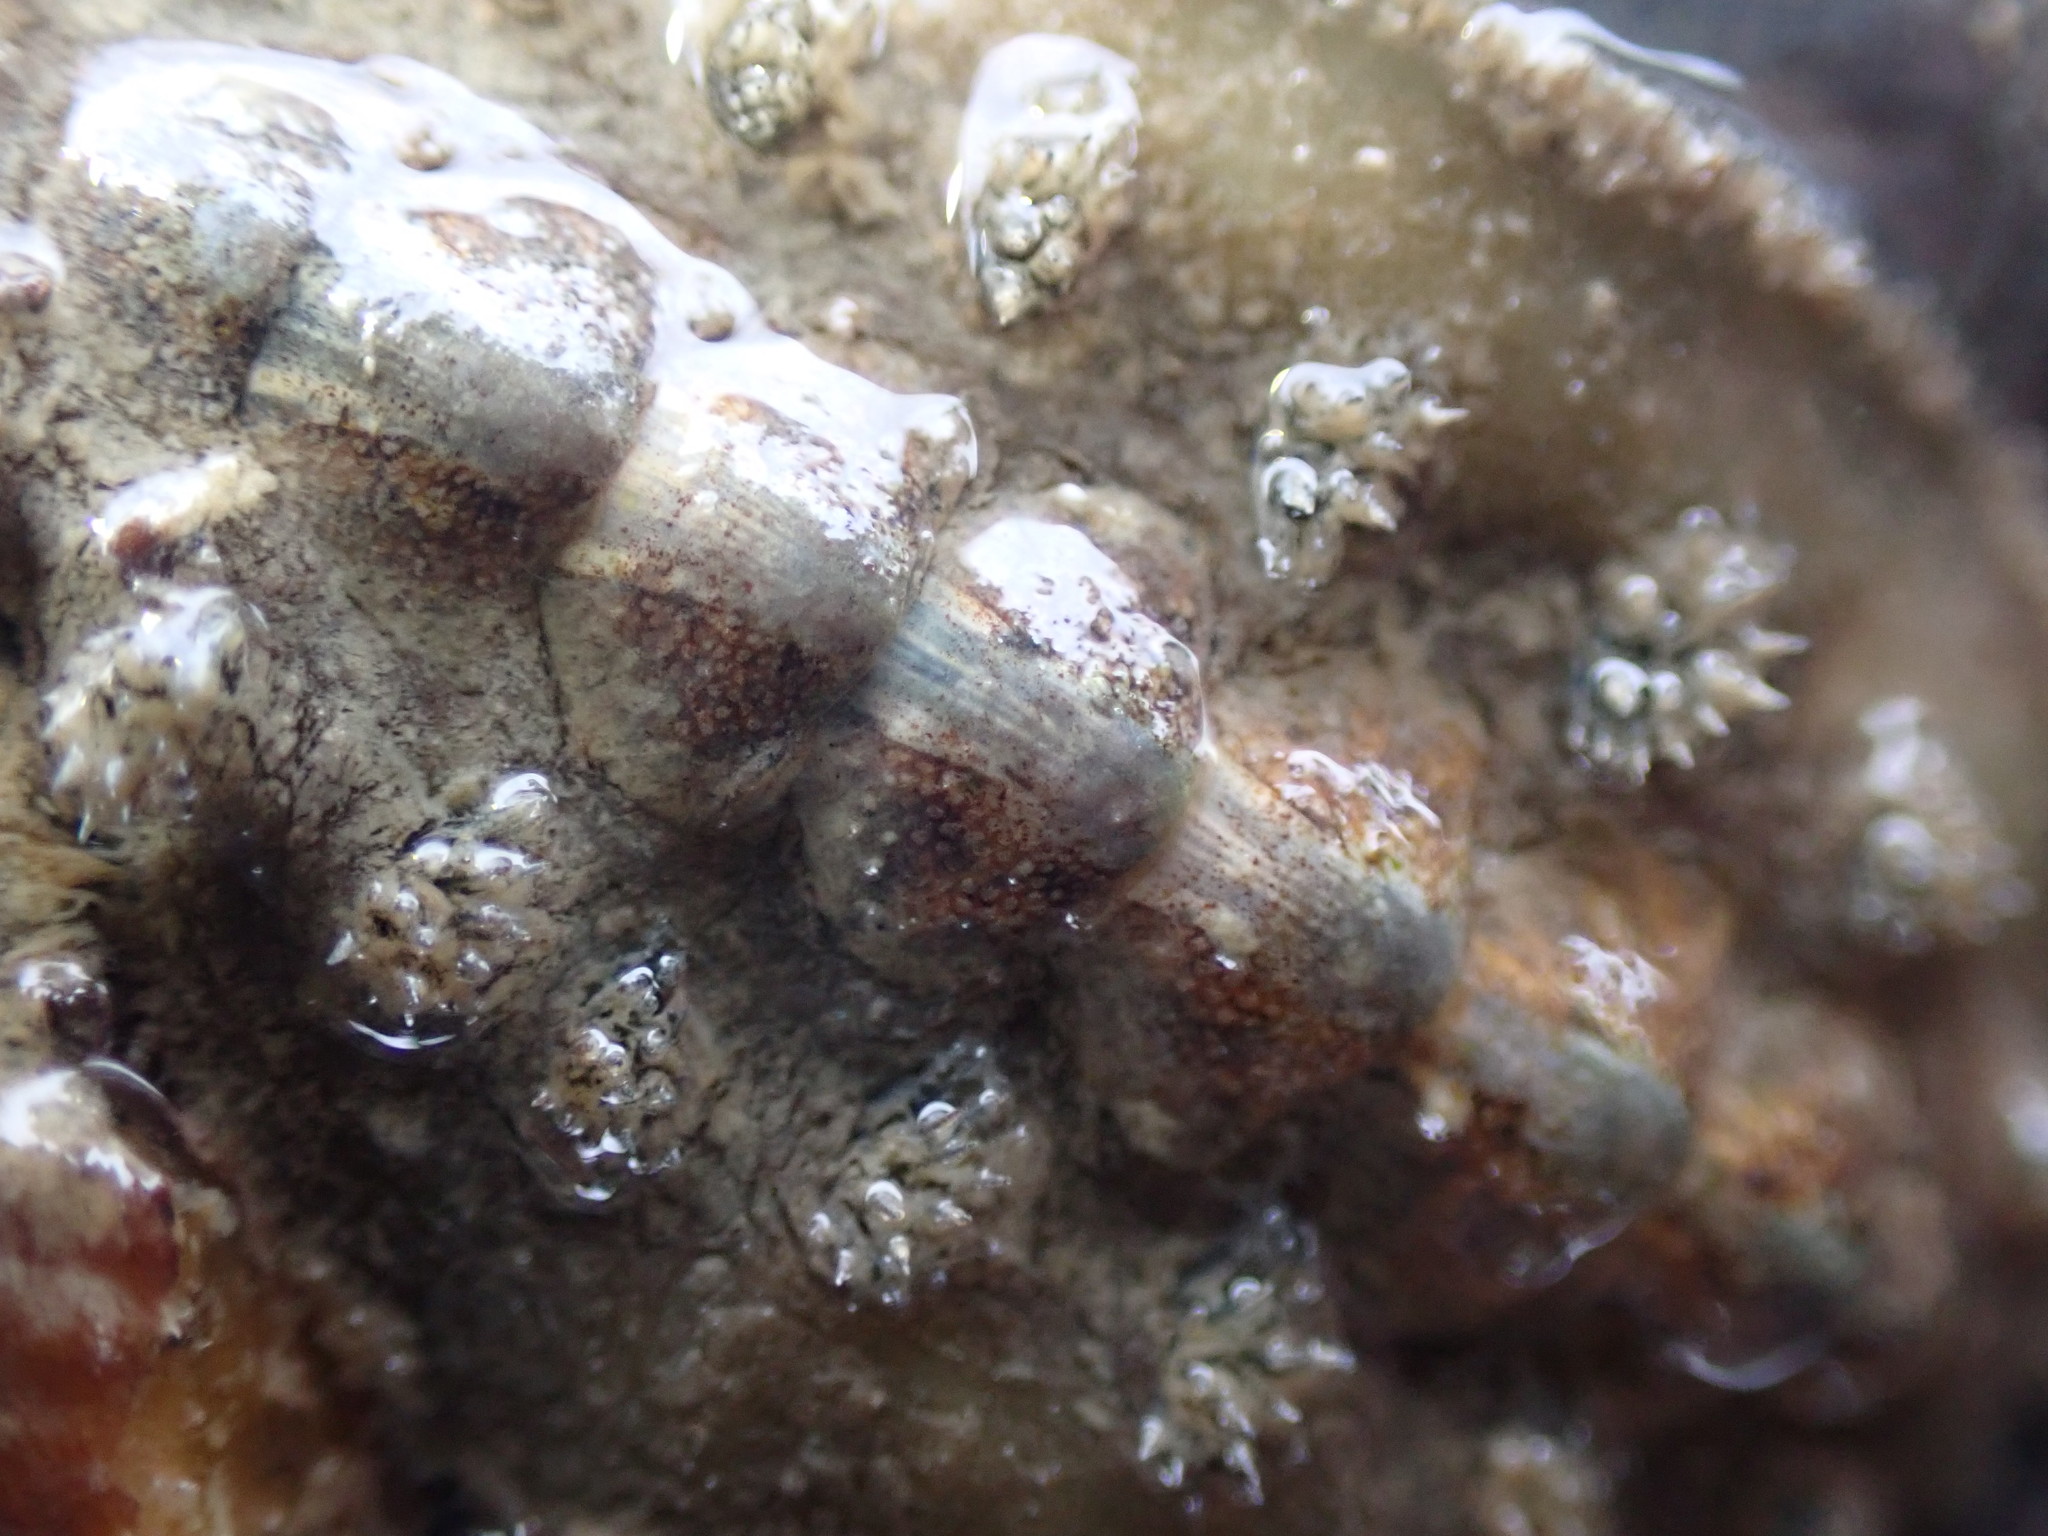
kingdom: Animalia
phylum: Mollusca
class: Polyplacophora
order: Chitonida
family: Acanthochitonidae
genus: Acanthochitona
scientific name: Acanthochitona zelandica
